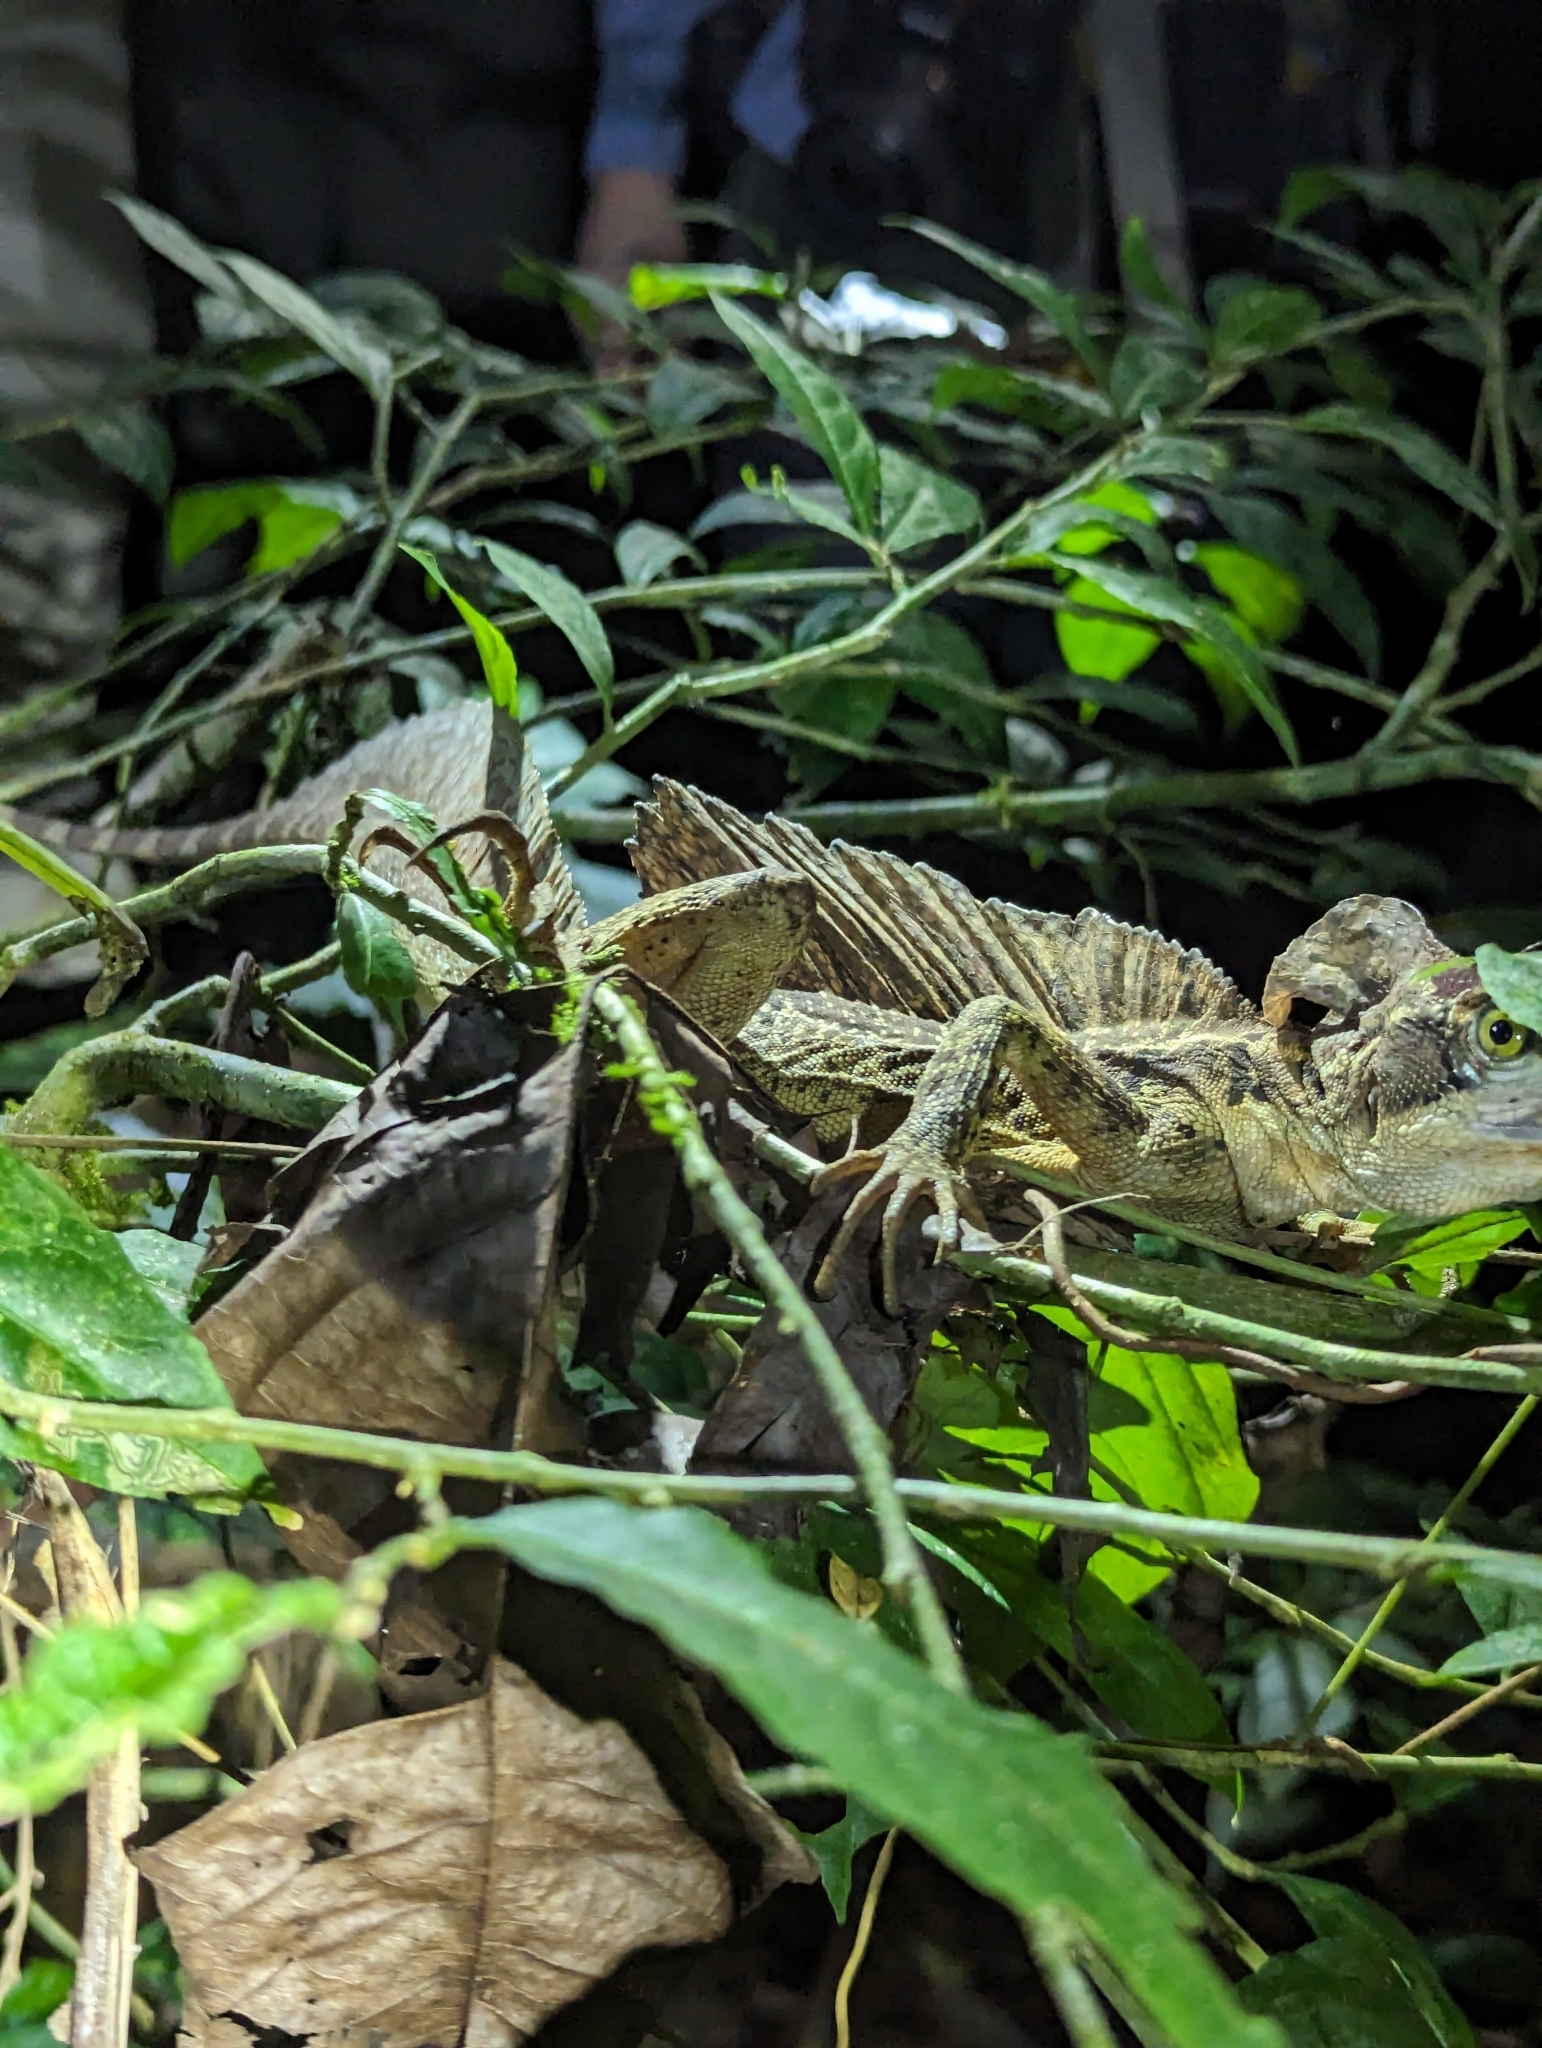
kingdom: Animalia
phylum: Chordata
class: Squamata
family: Corytophanidae
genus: Basiliscus
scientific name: Basiliscus basiliscus
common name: Common basilisk
